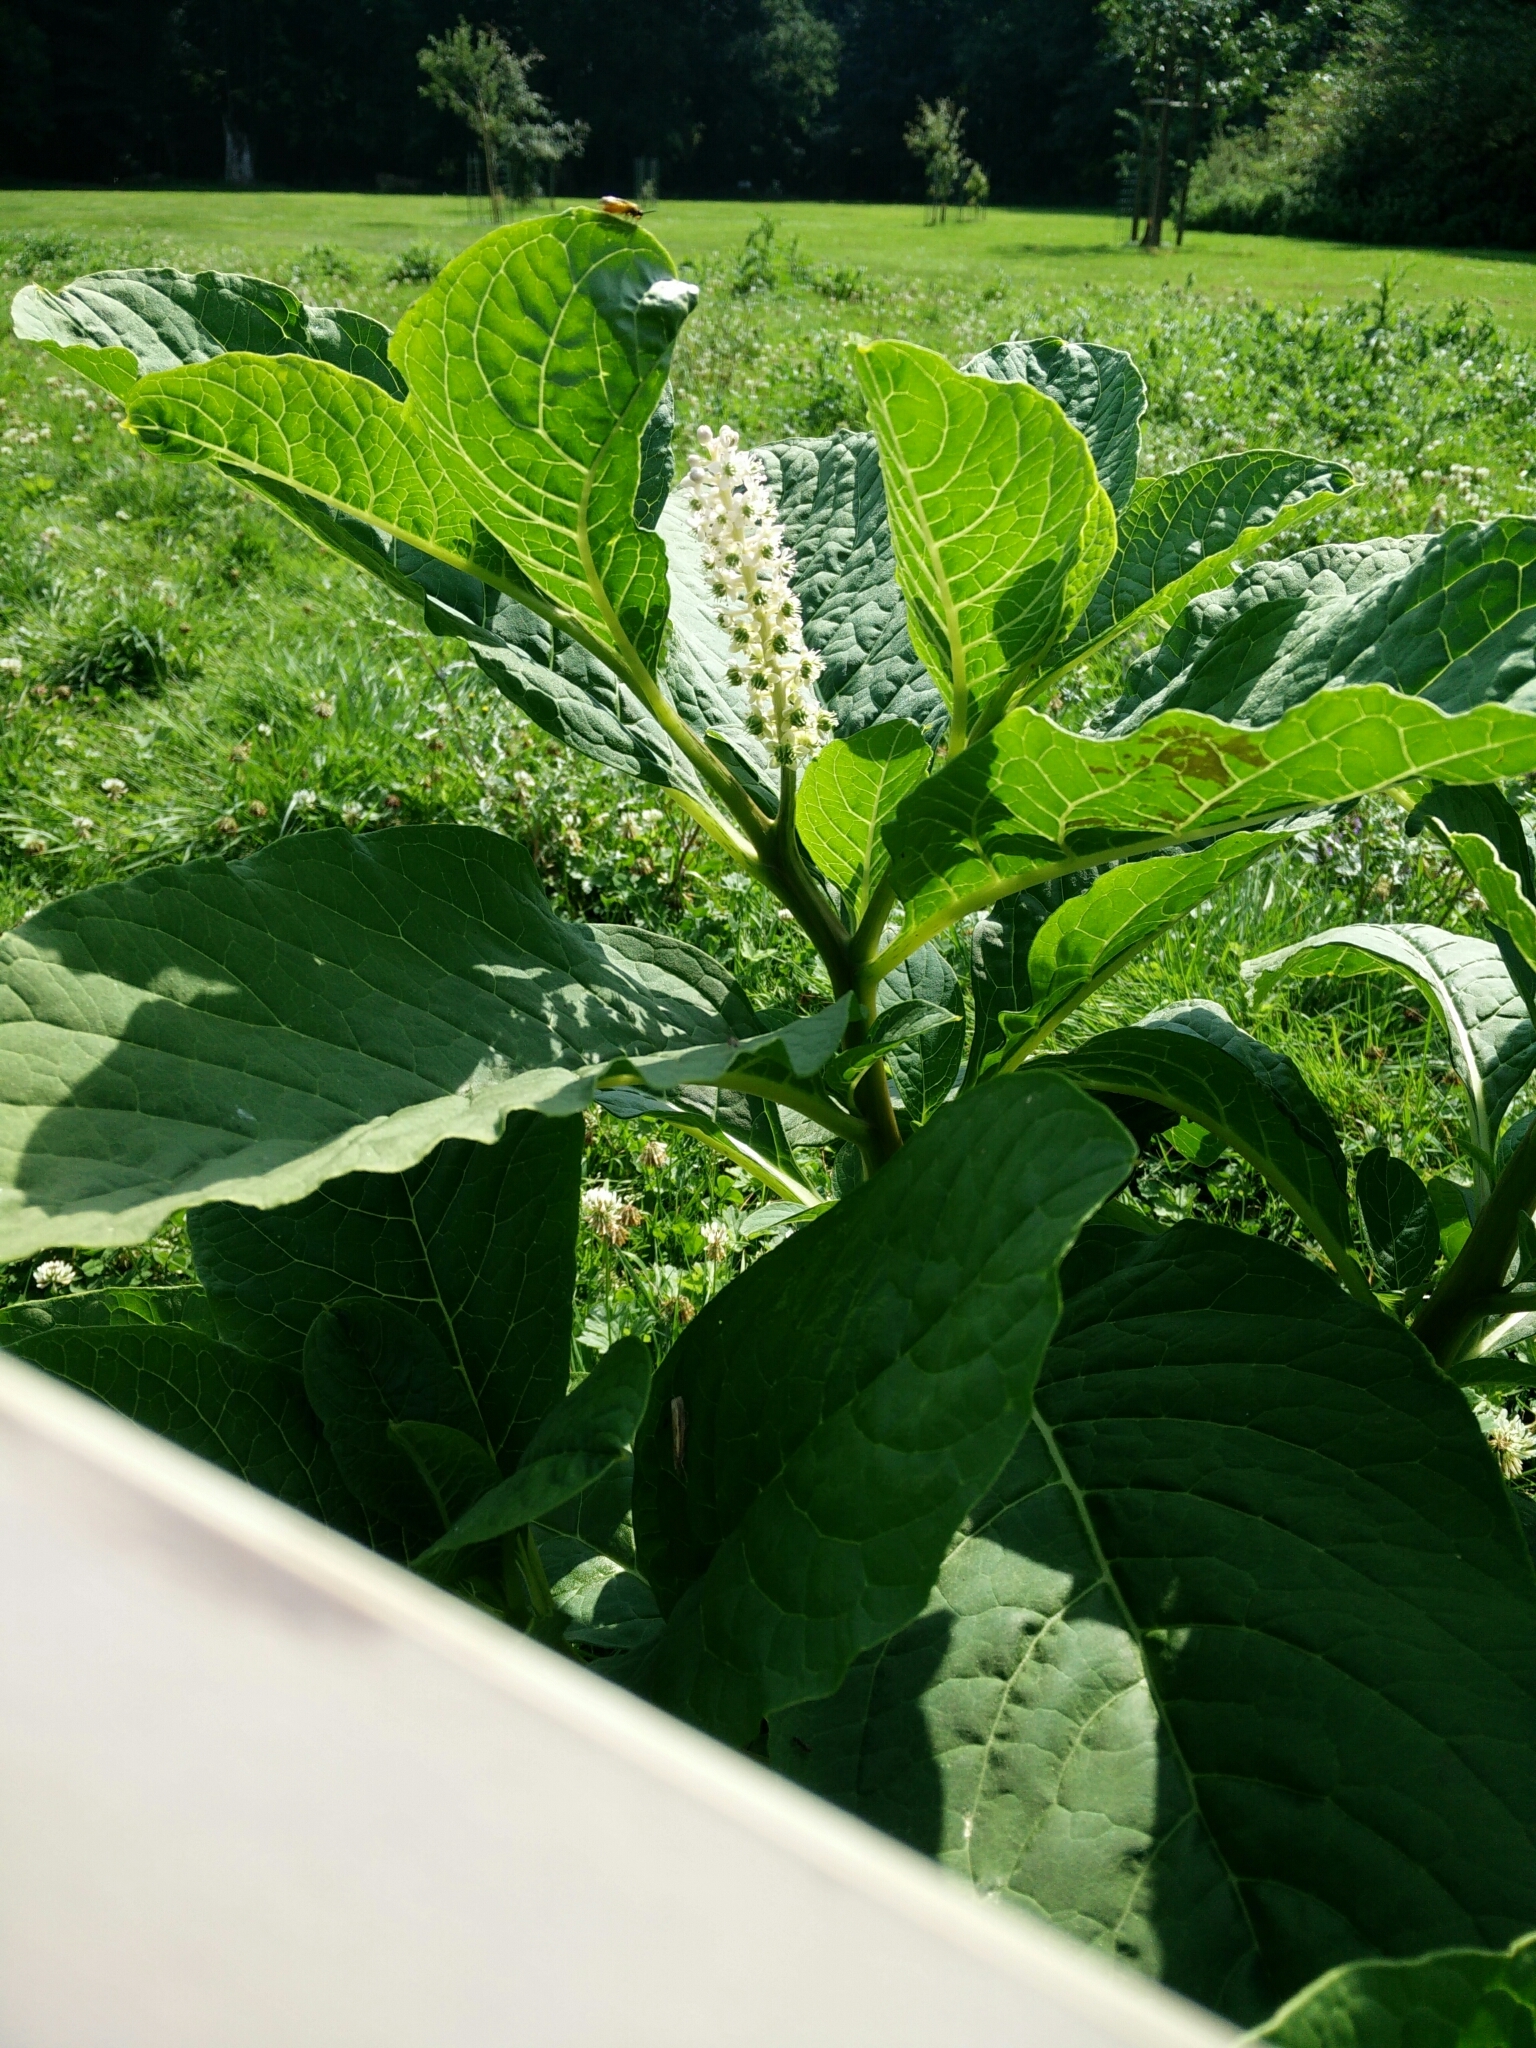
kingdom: Plantae
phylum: Tracheophyta
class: Magnoliopsida
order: Caryophyllales
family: Phytolaccaceae
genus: Phytolacca
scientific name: Phytolacca acinosa
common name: Indian pokeweed
